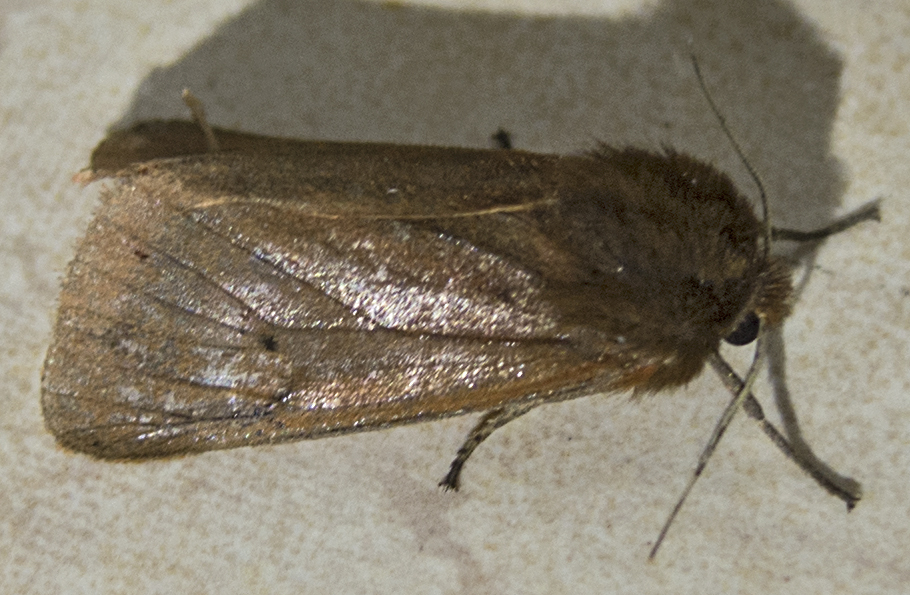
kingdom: Animalia
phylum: Arthropoda
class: Insecta
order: Lepidoptera
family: Erebidae
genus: Phragmatobia
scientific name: Phragmatobia fuliginosa
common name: Ruby tiger
